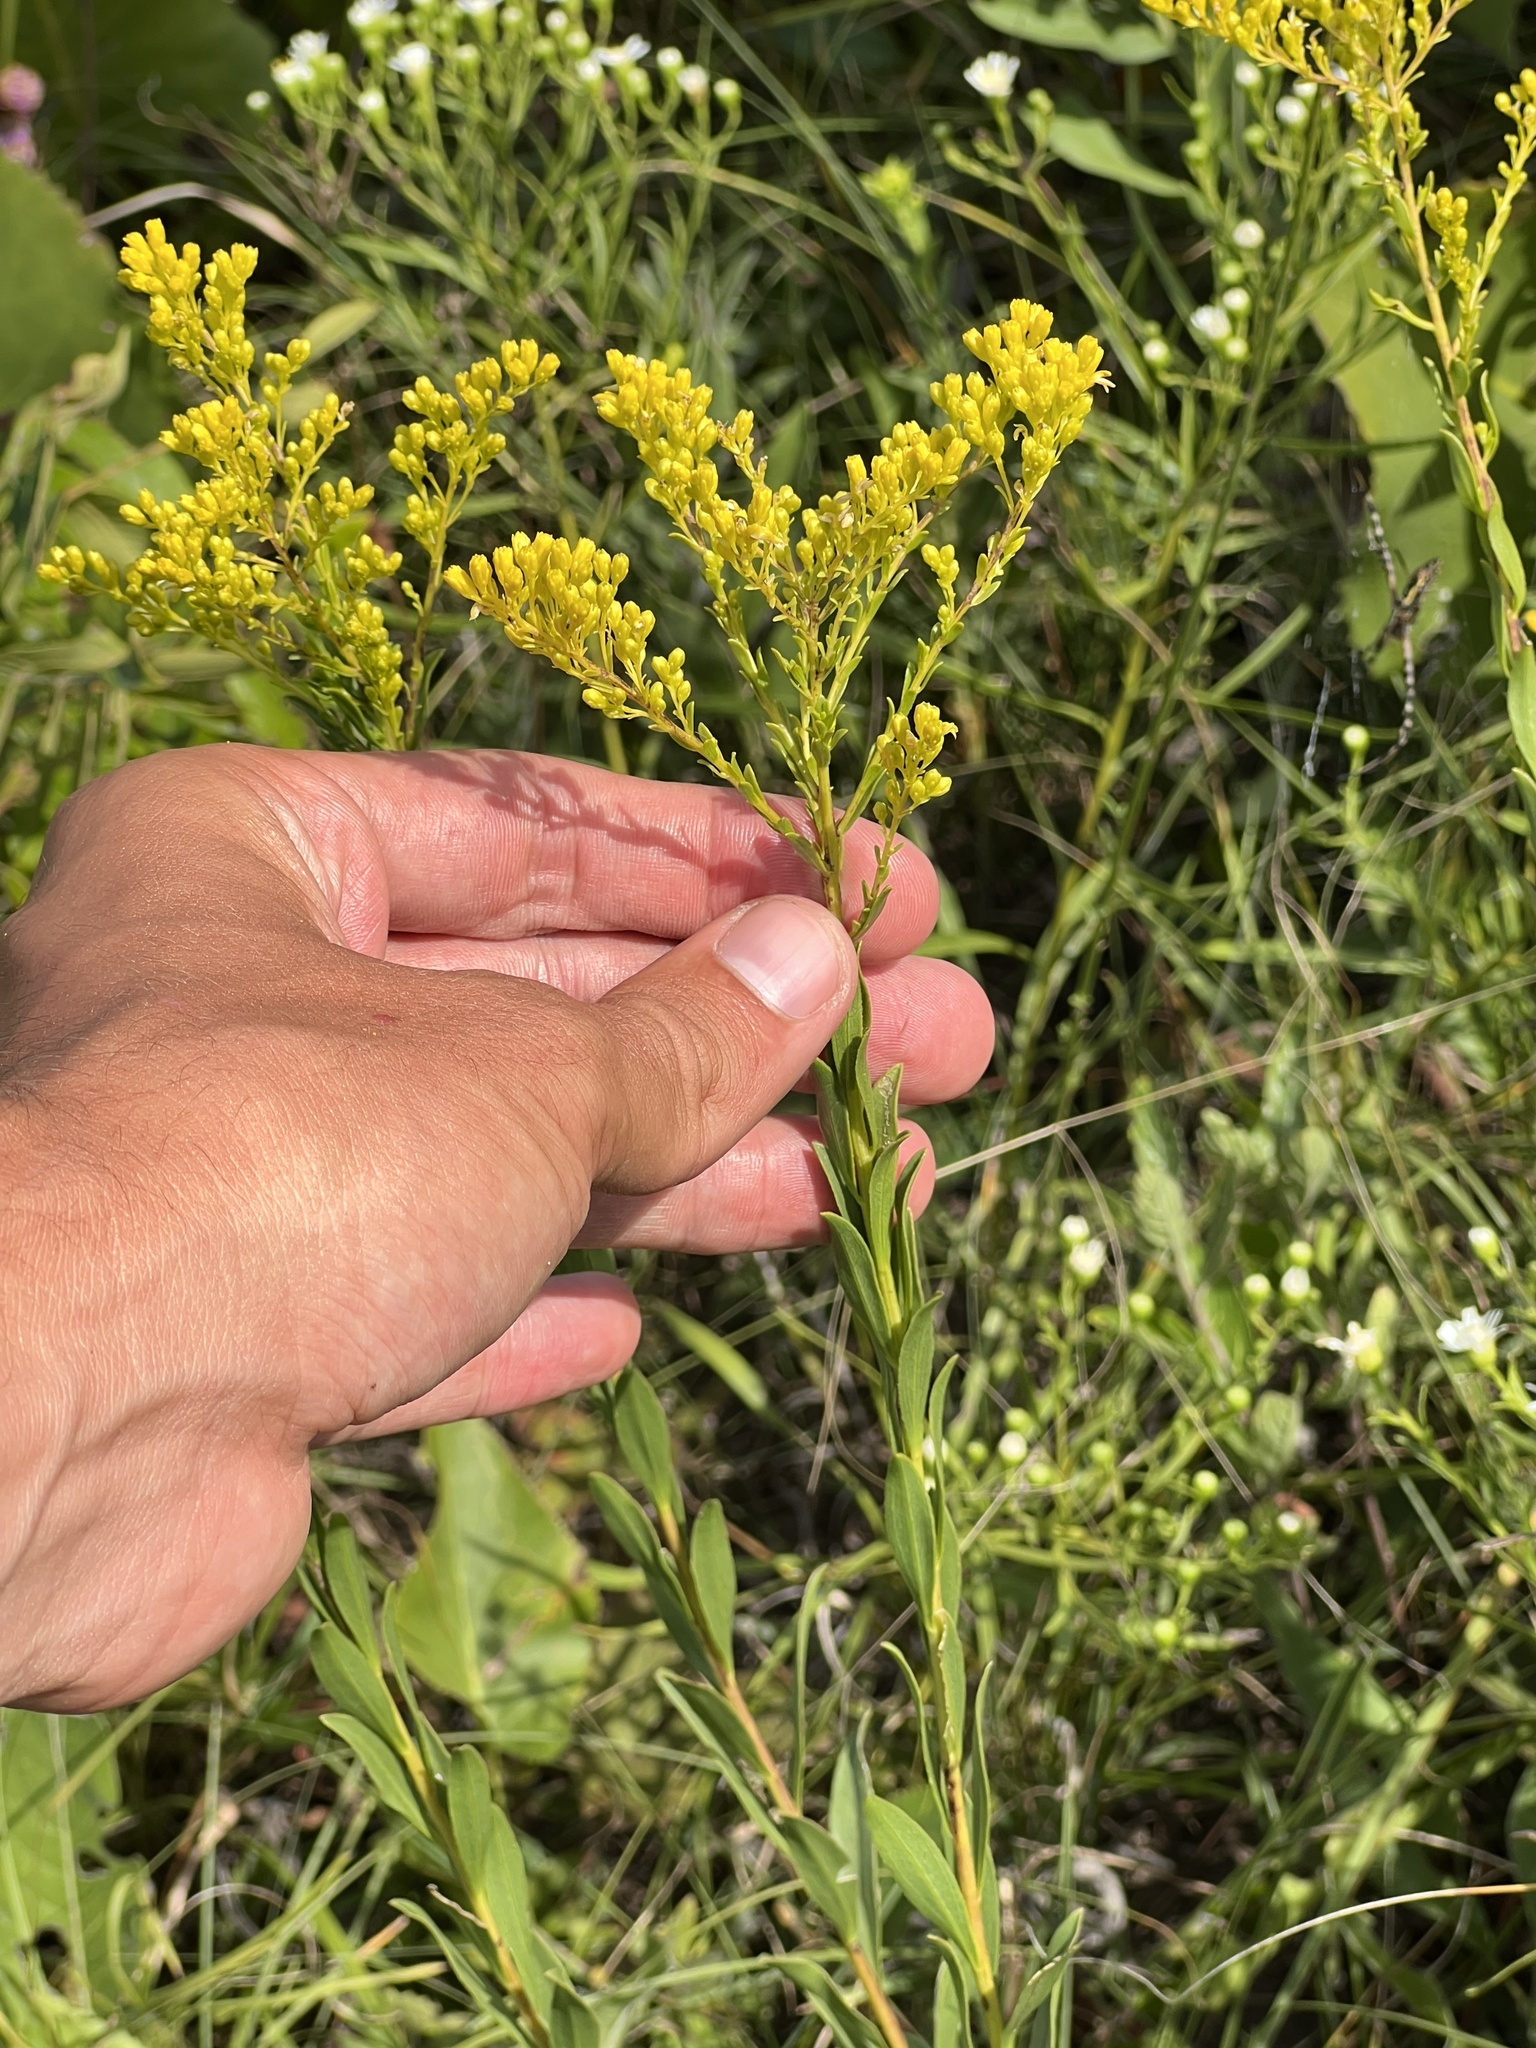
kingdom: Plantae
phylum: Tracheophyta
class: Magnoliopsida
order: Asterales
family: Asteraceae
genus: Solidago
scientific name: Solidago gattingeri
